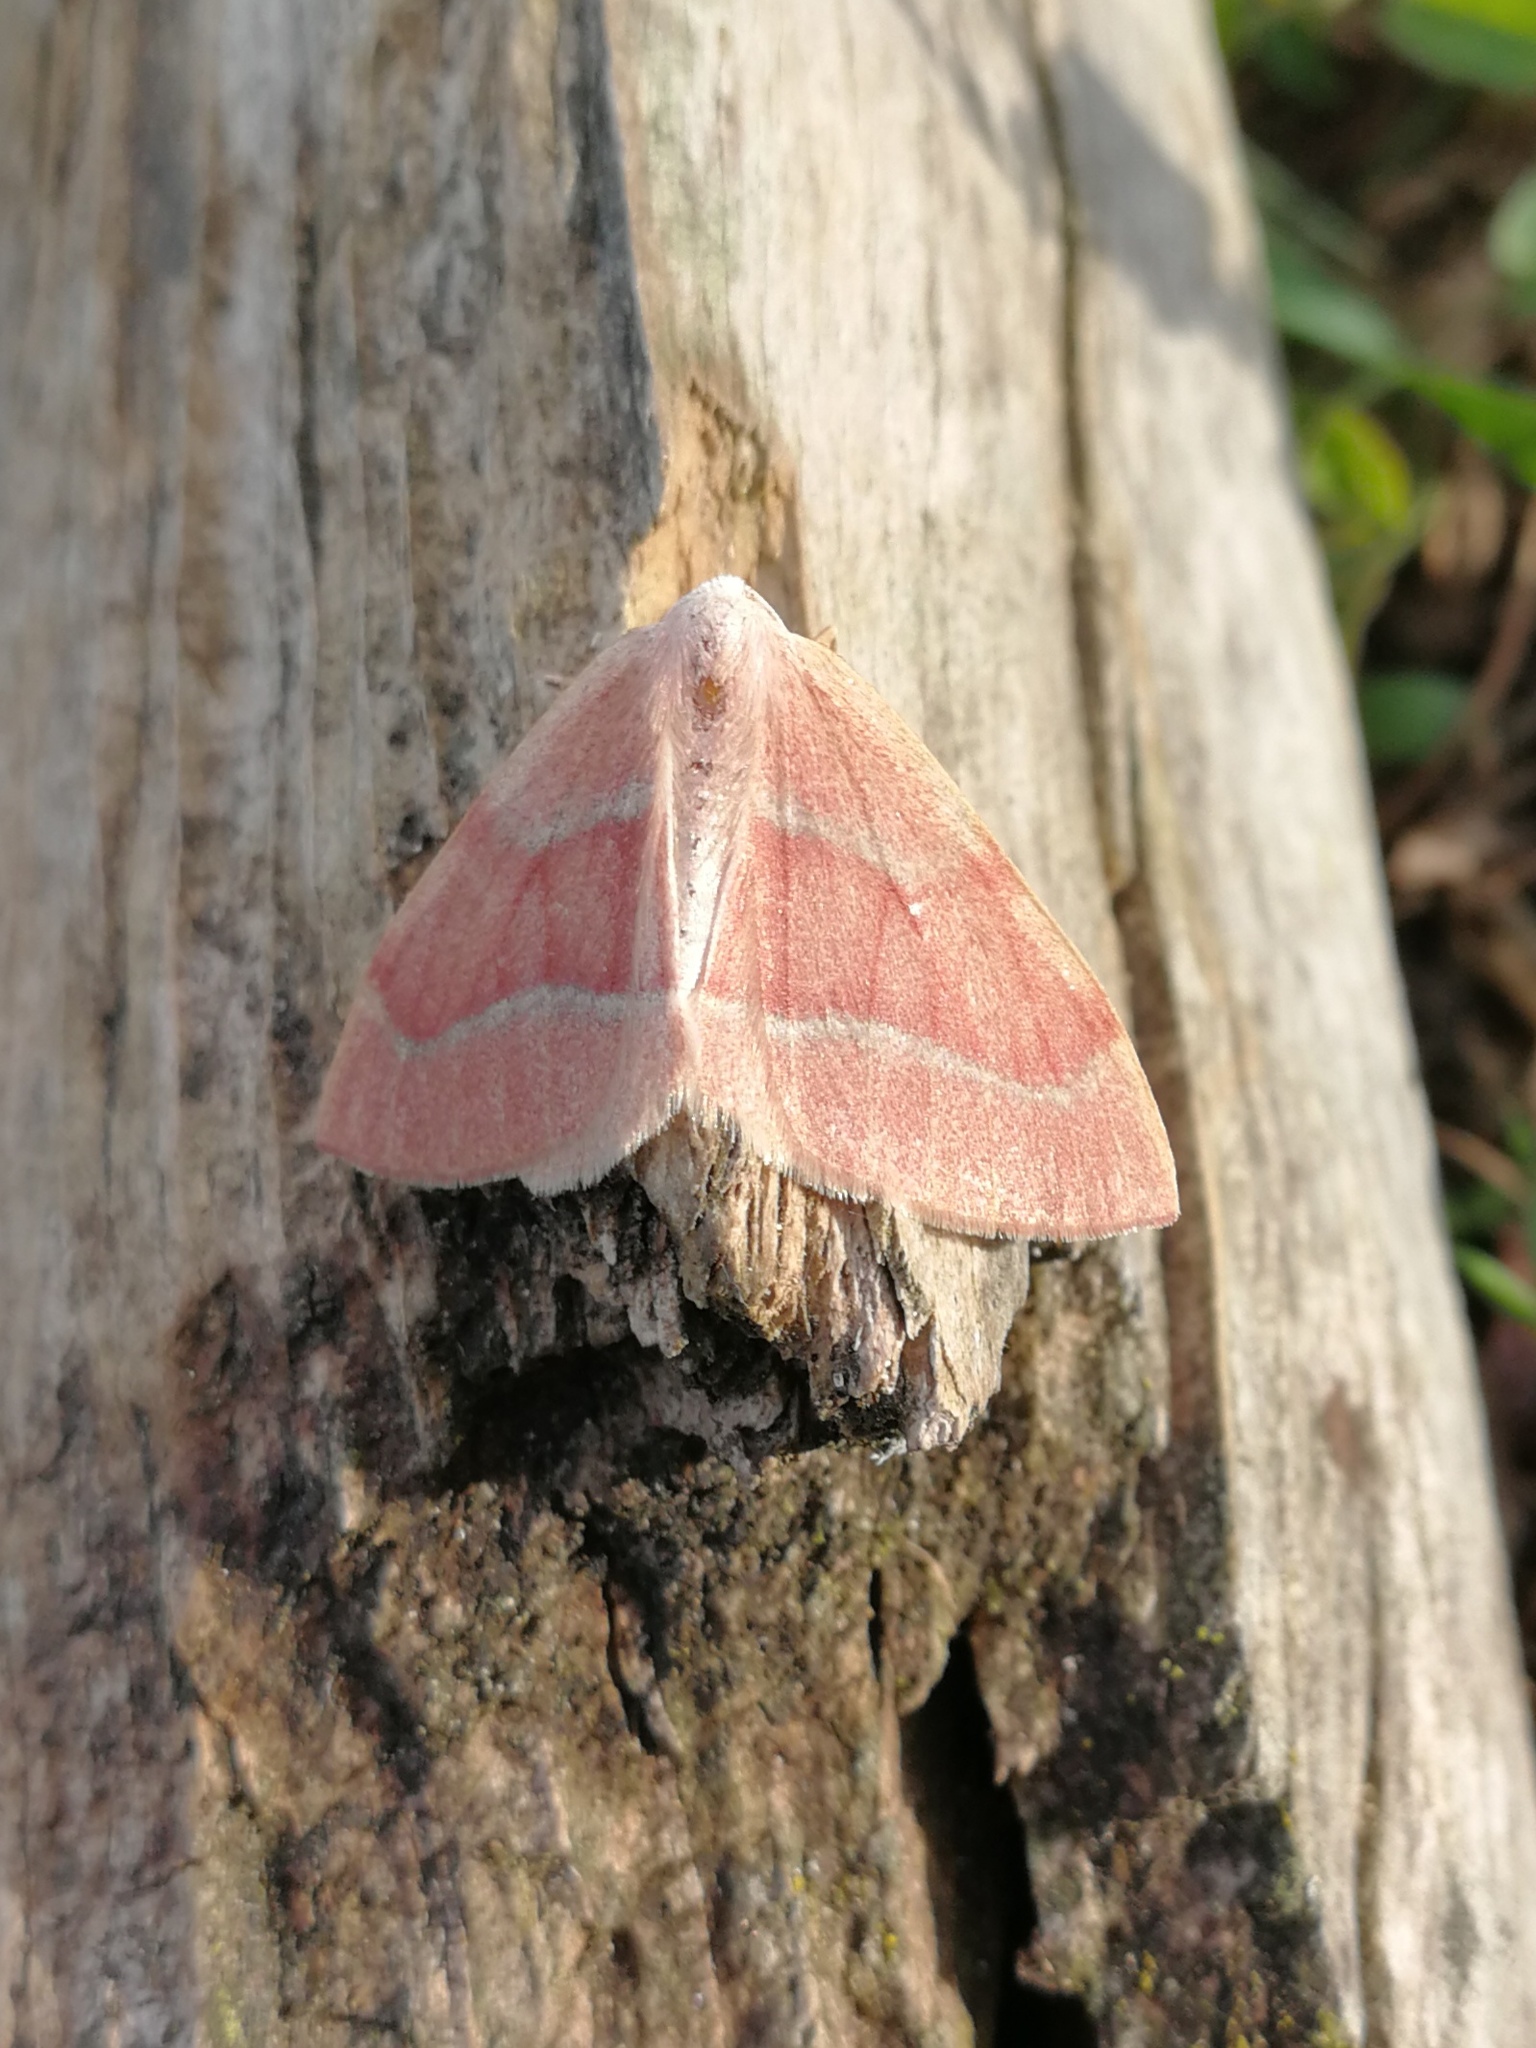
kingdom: Animalia
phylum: Arthropoda
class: Insecta
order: Lepidoptera
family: Geometridae
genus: Hylaea
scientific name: Hylaea fasciaria
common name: Barred red
